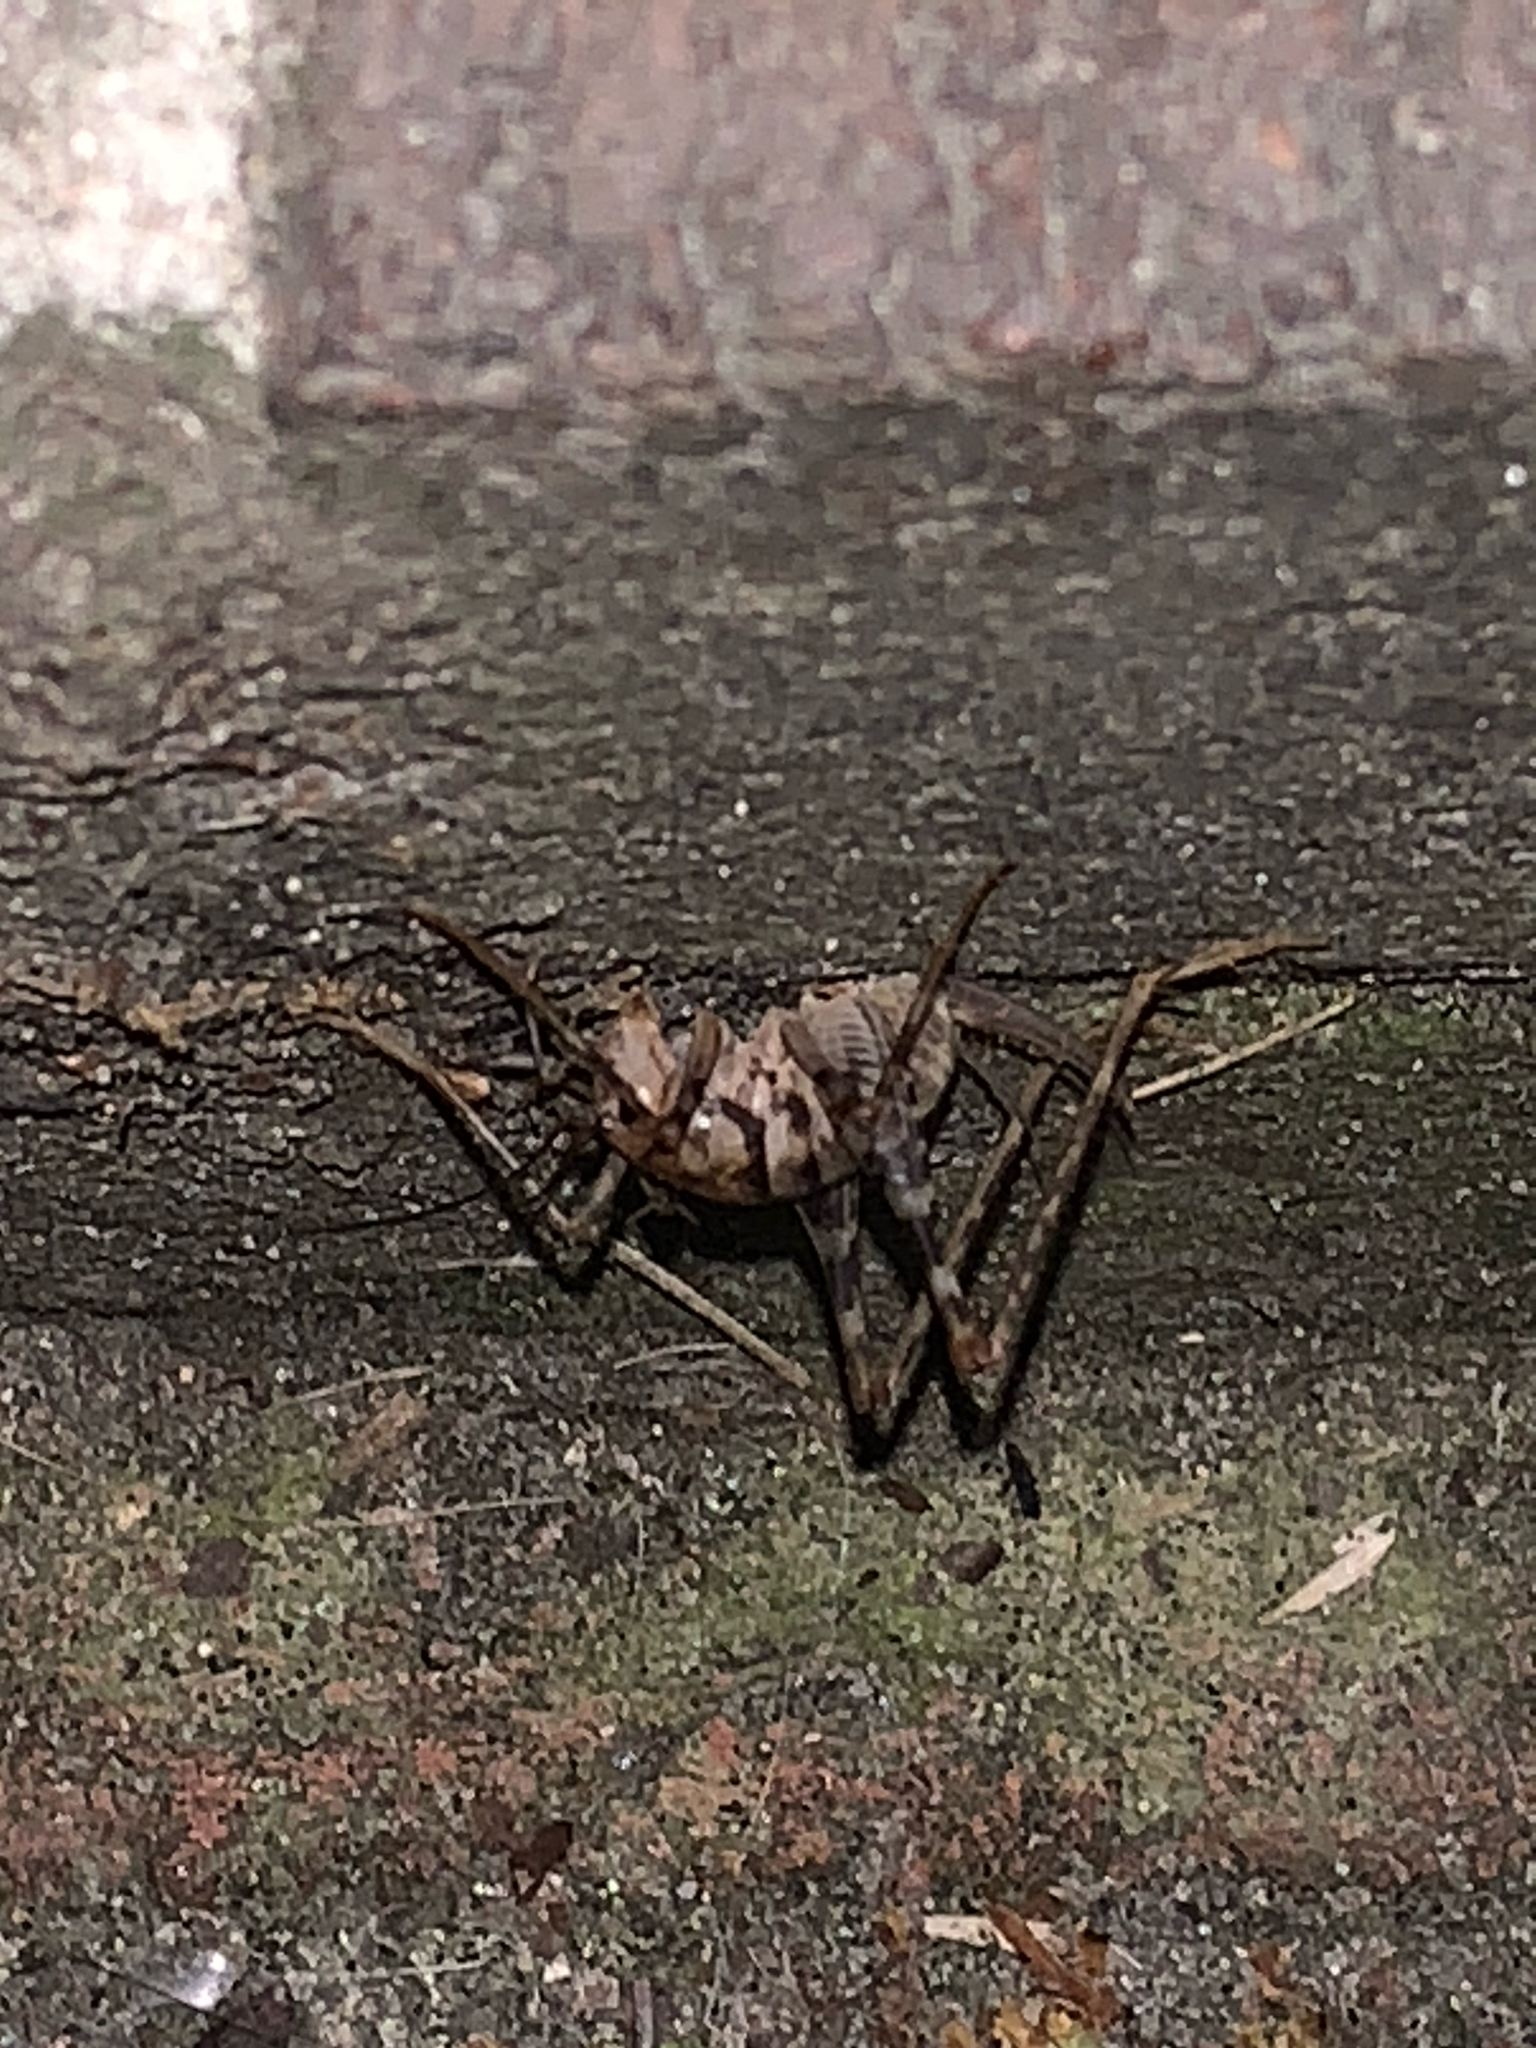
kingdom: Animalia
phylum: Arthropoda
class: Insecta
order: Orthoptera
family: Rhaphidophoridae
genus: Tachycines
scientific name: Tachycines asynamorus
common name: Greenhouse camel cricket
